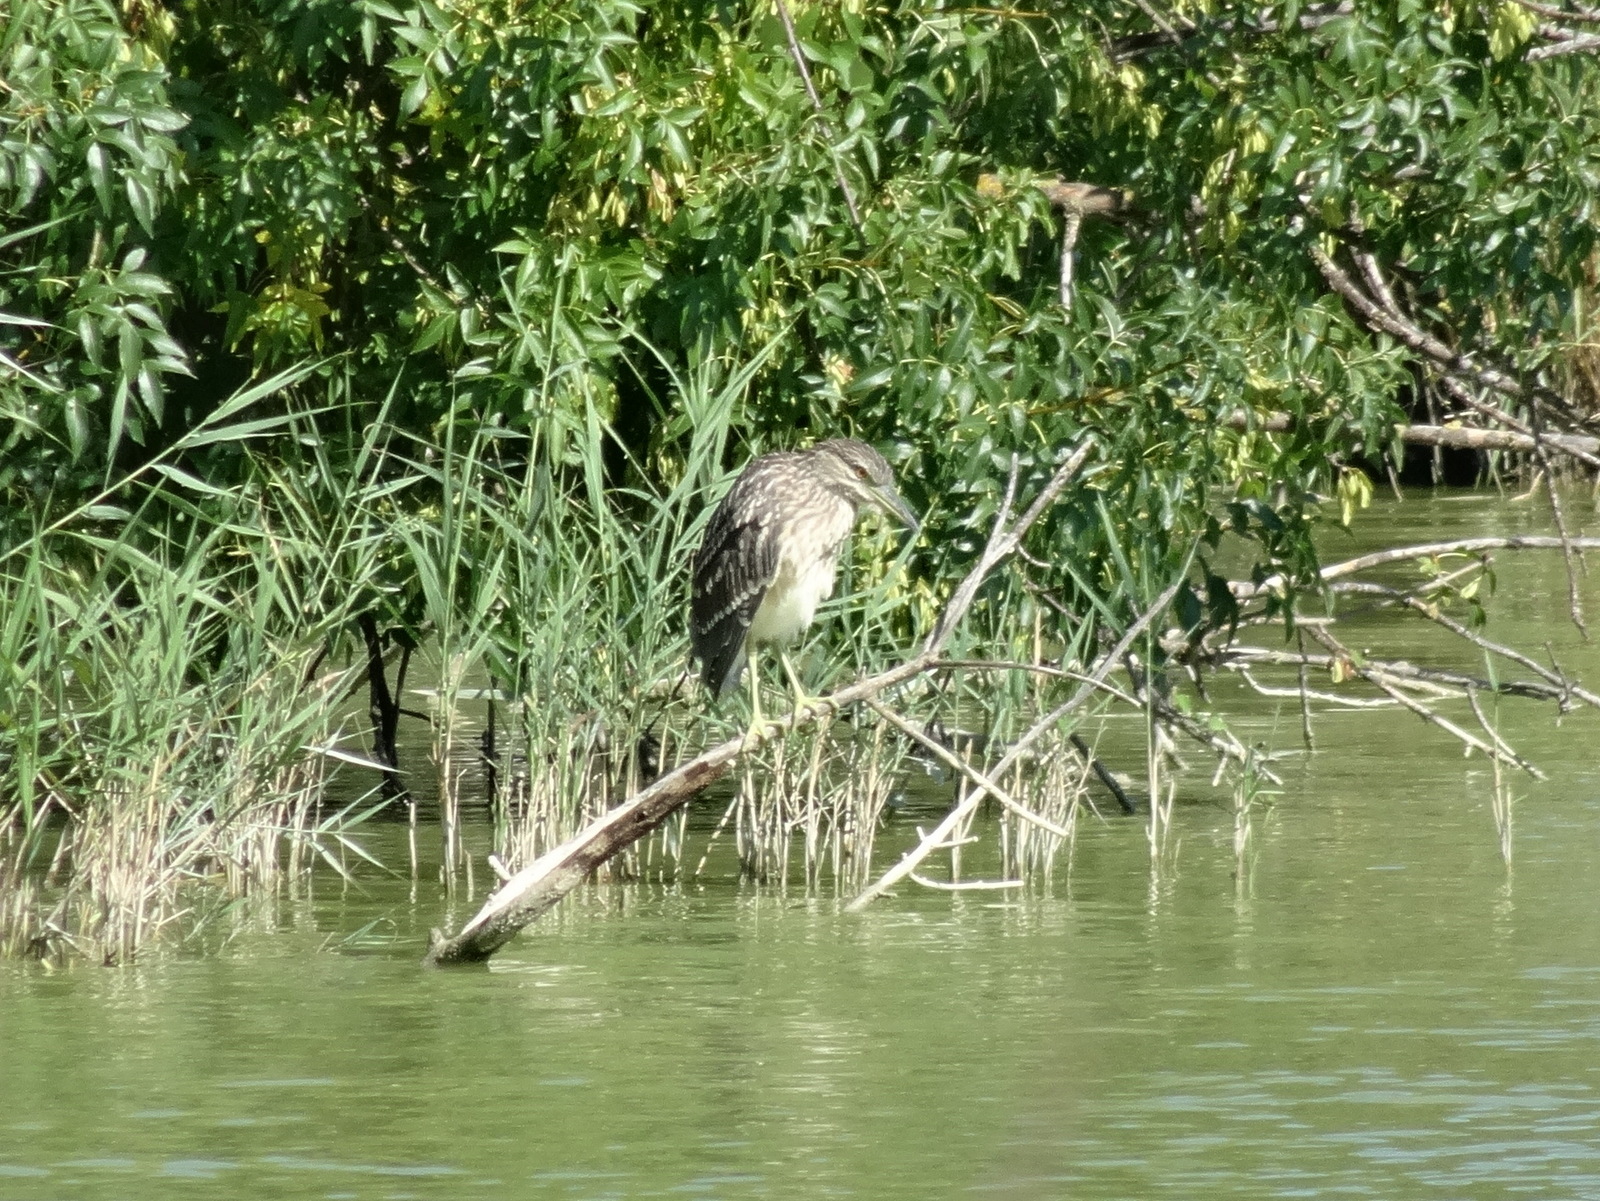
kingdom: Animalia
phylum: Chordata
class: Aves
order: Pelecaniformes
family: Ardeidae
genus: Nycticorax
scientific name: Nycticorax nycticorax
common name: Black-crowned night heron
